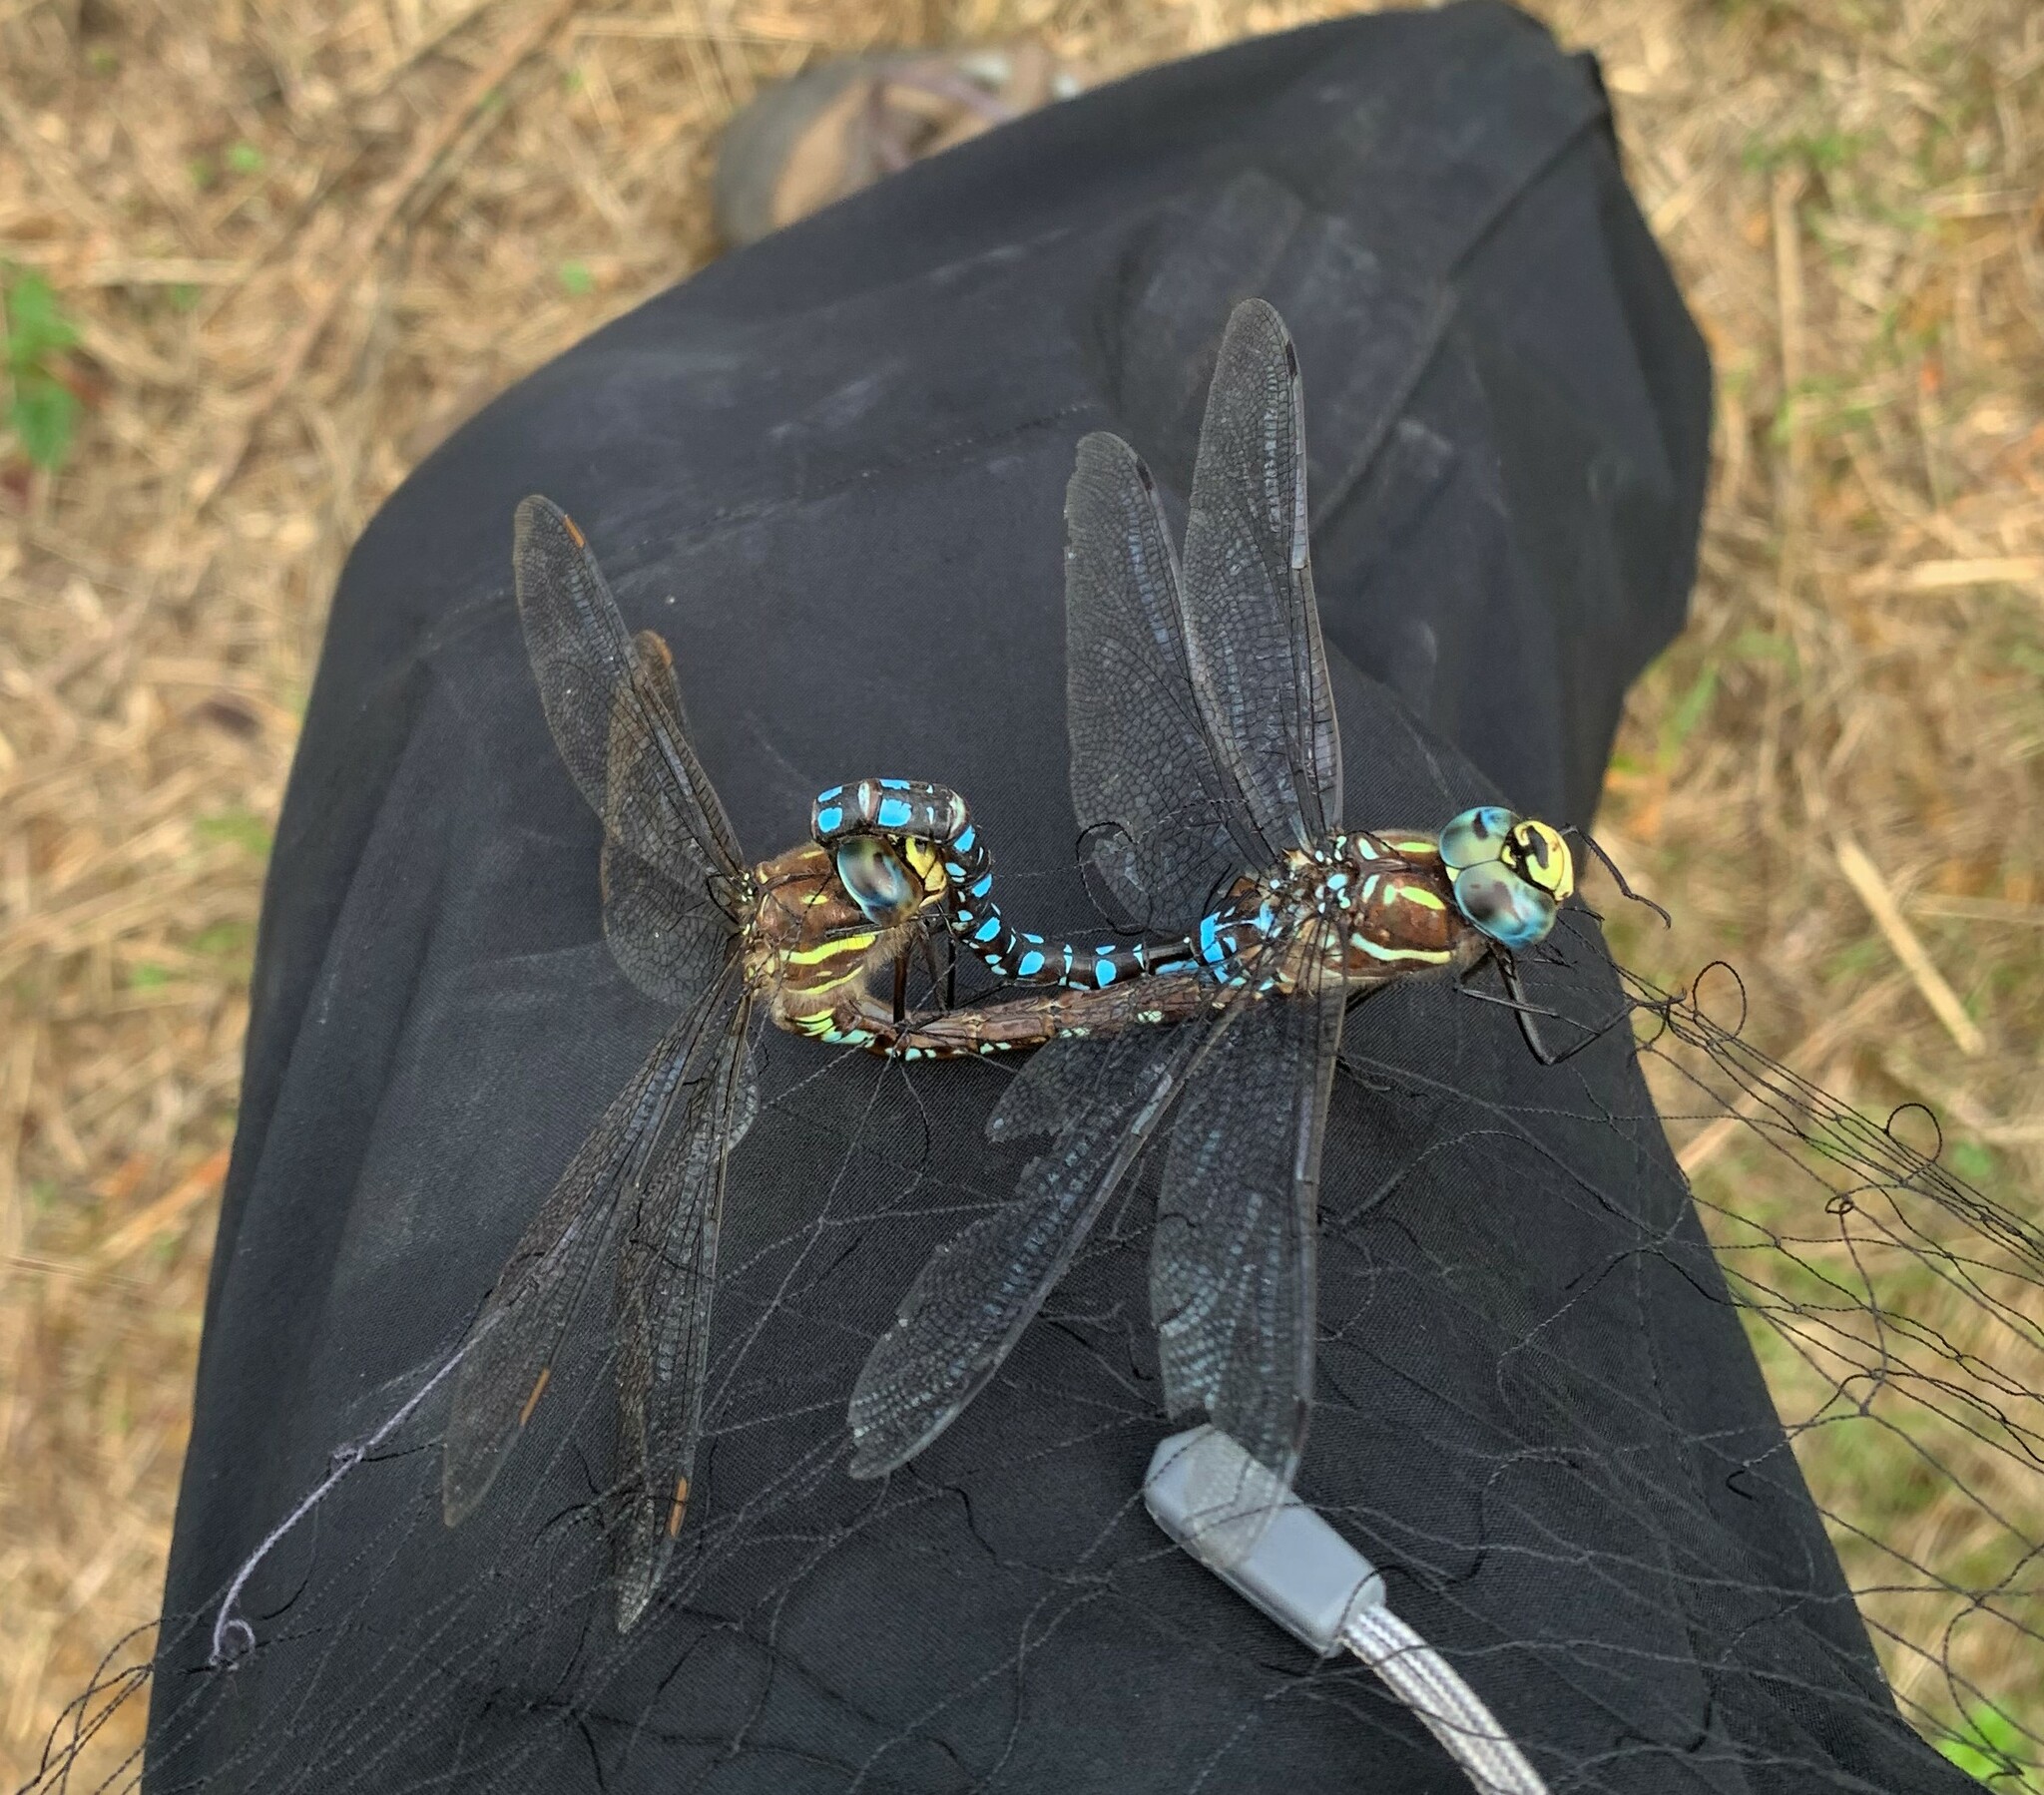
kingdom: Animalia
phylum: Arthropoda
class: Insecta
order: Odonata
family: Aeshnidae
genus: Aeshna
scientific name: Aeshna palmata
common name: Paddle-tailed darner
